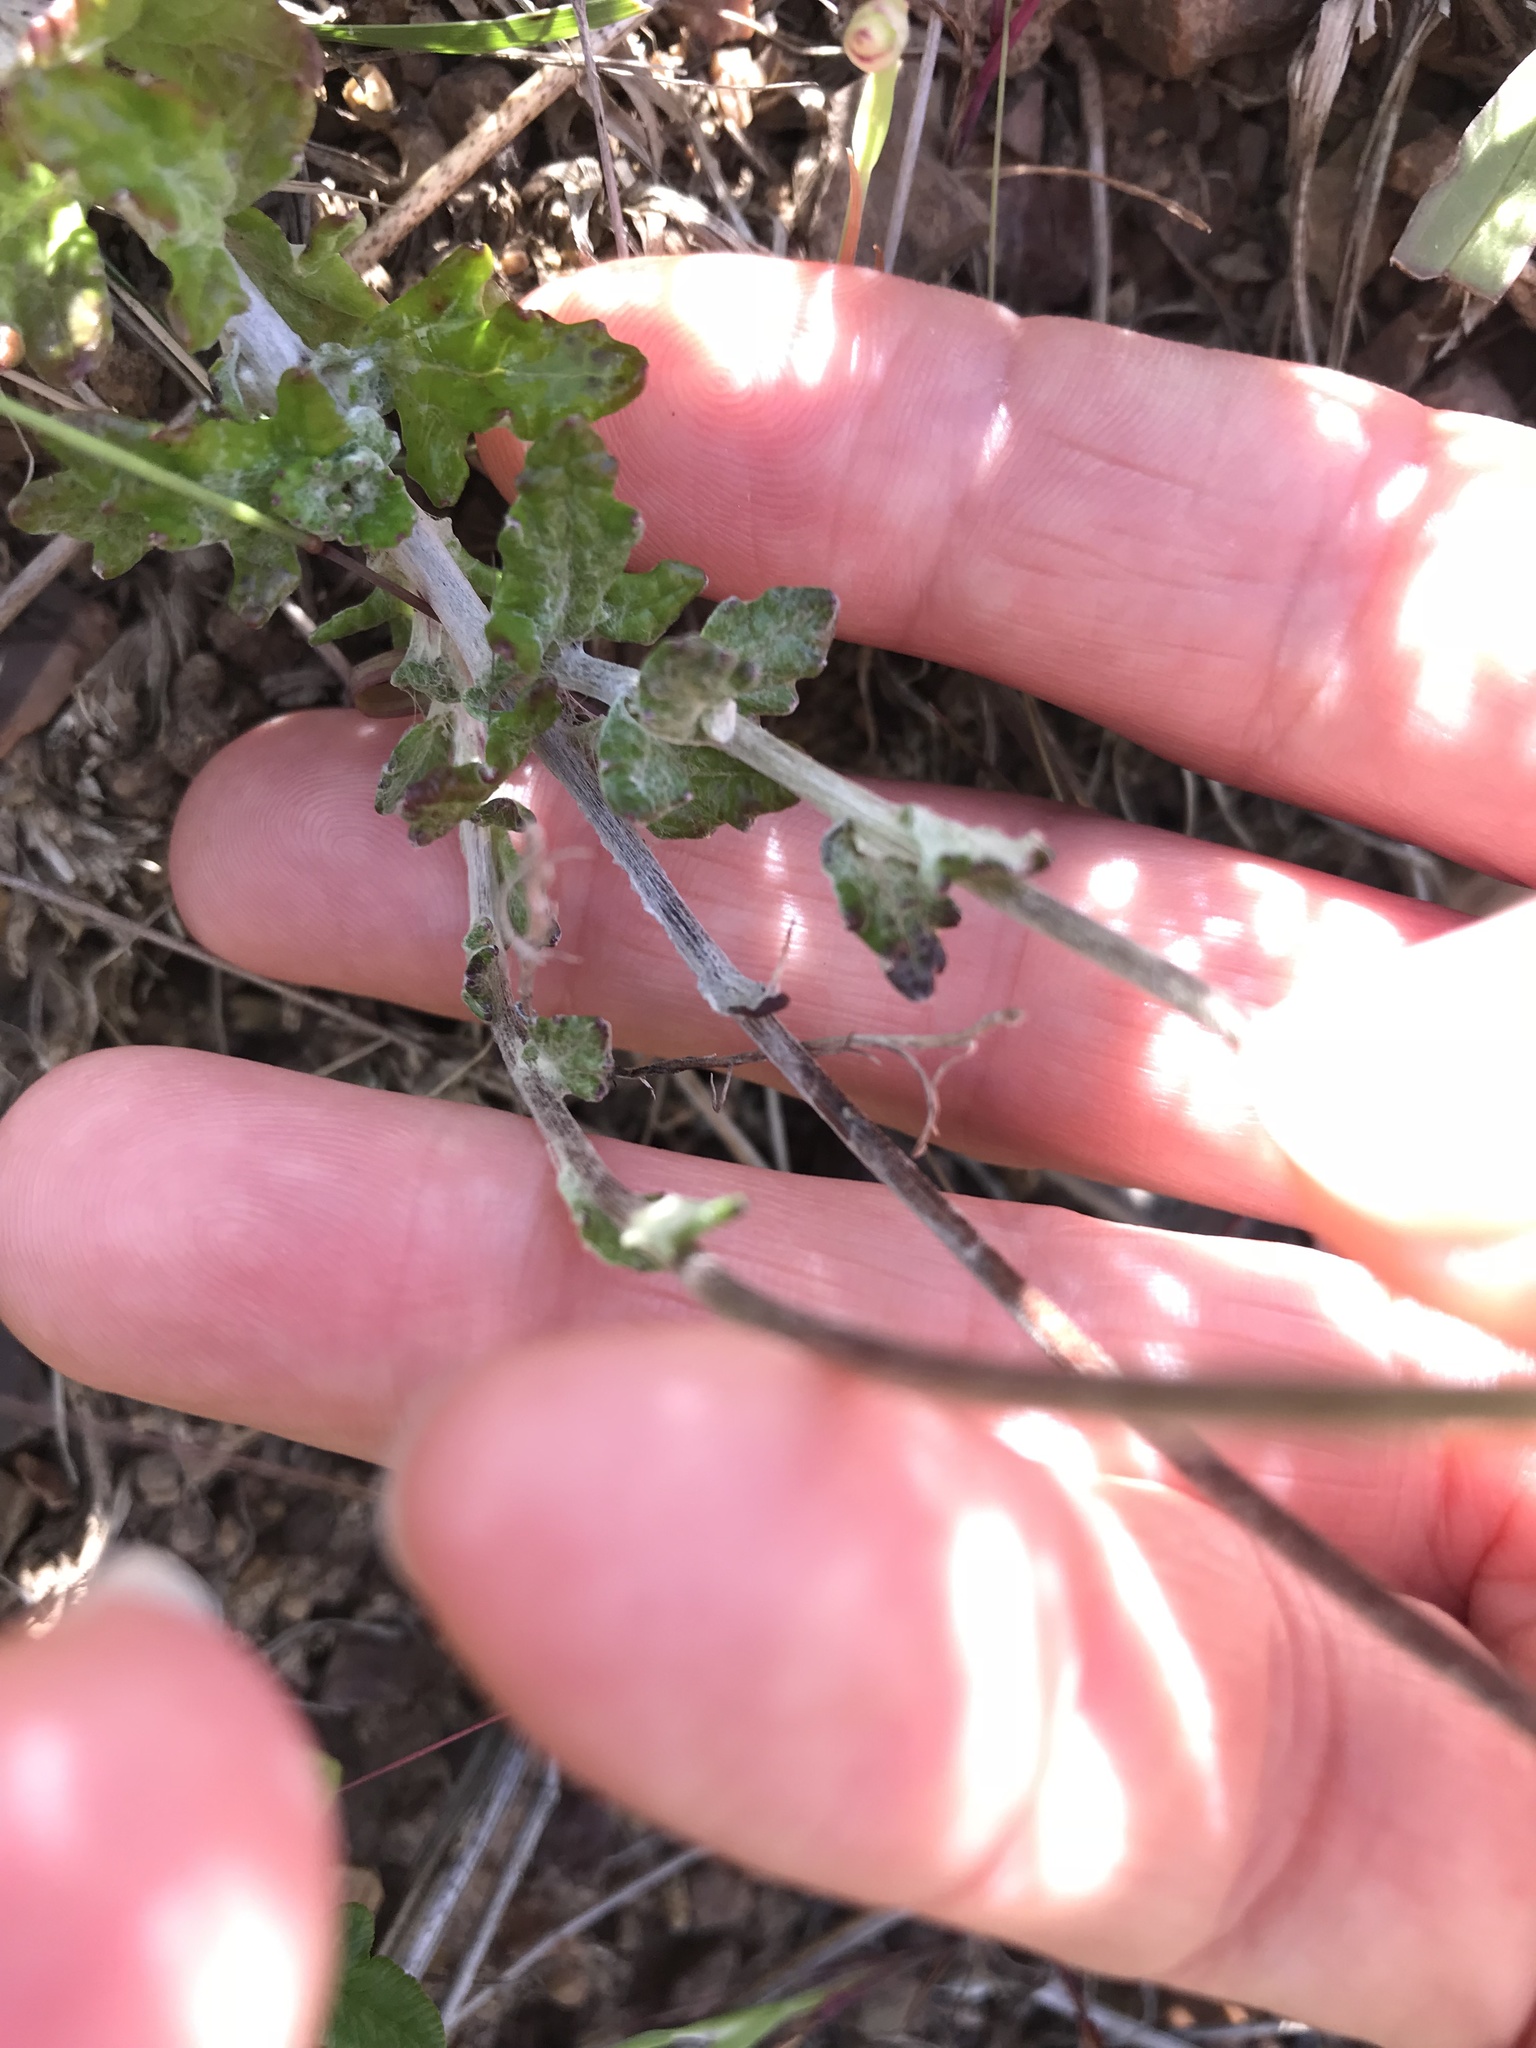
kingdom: Plantae
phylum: Tracheophyta
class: Magnoliopsida
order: Asterales
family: Asteraceae
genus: Eriophyllum
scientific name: Eriophyllum lanatum
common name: Common woolly-sunflower
